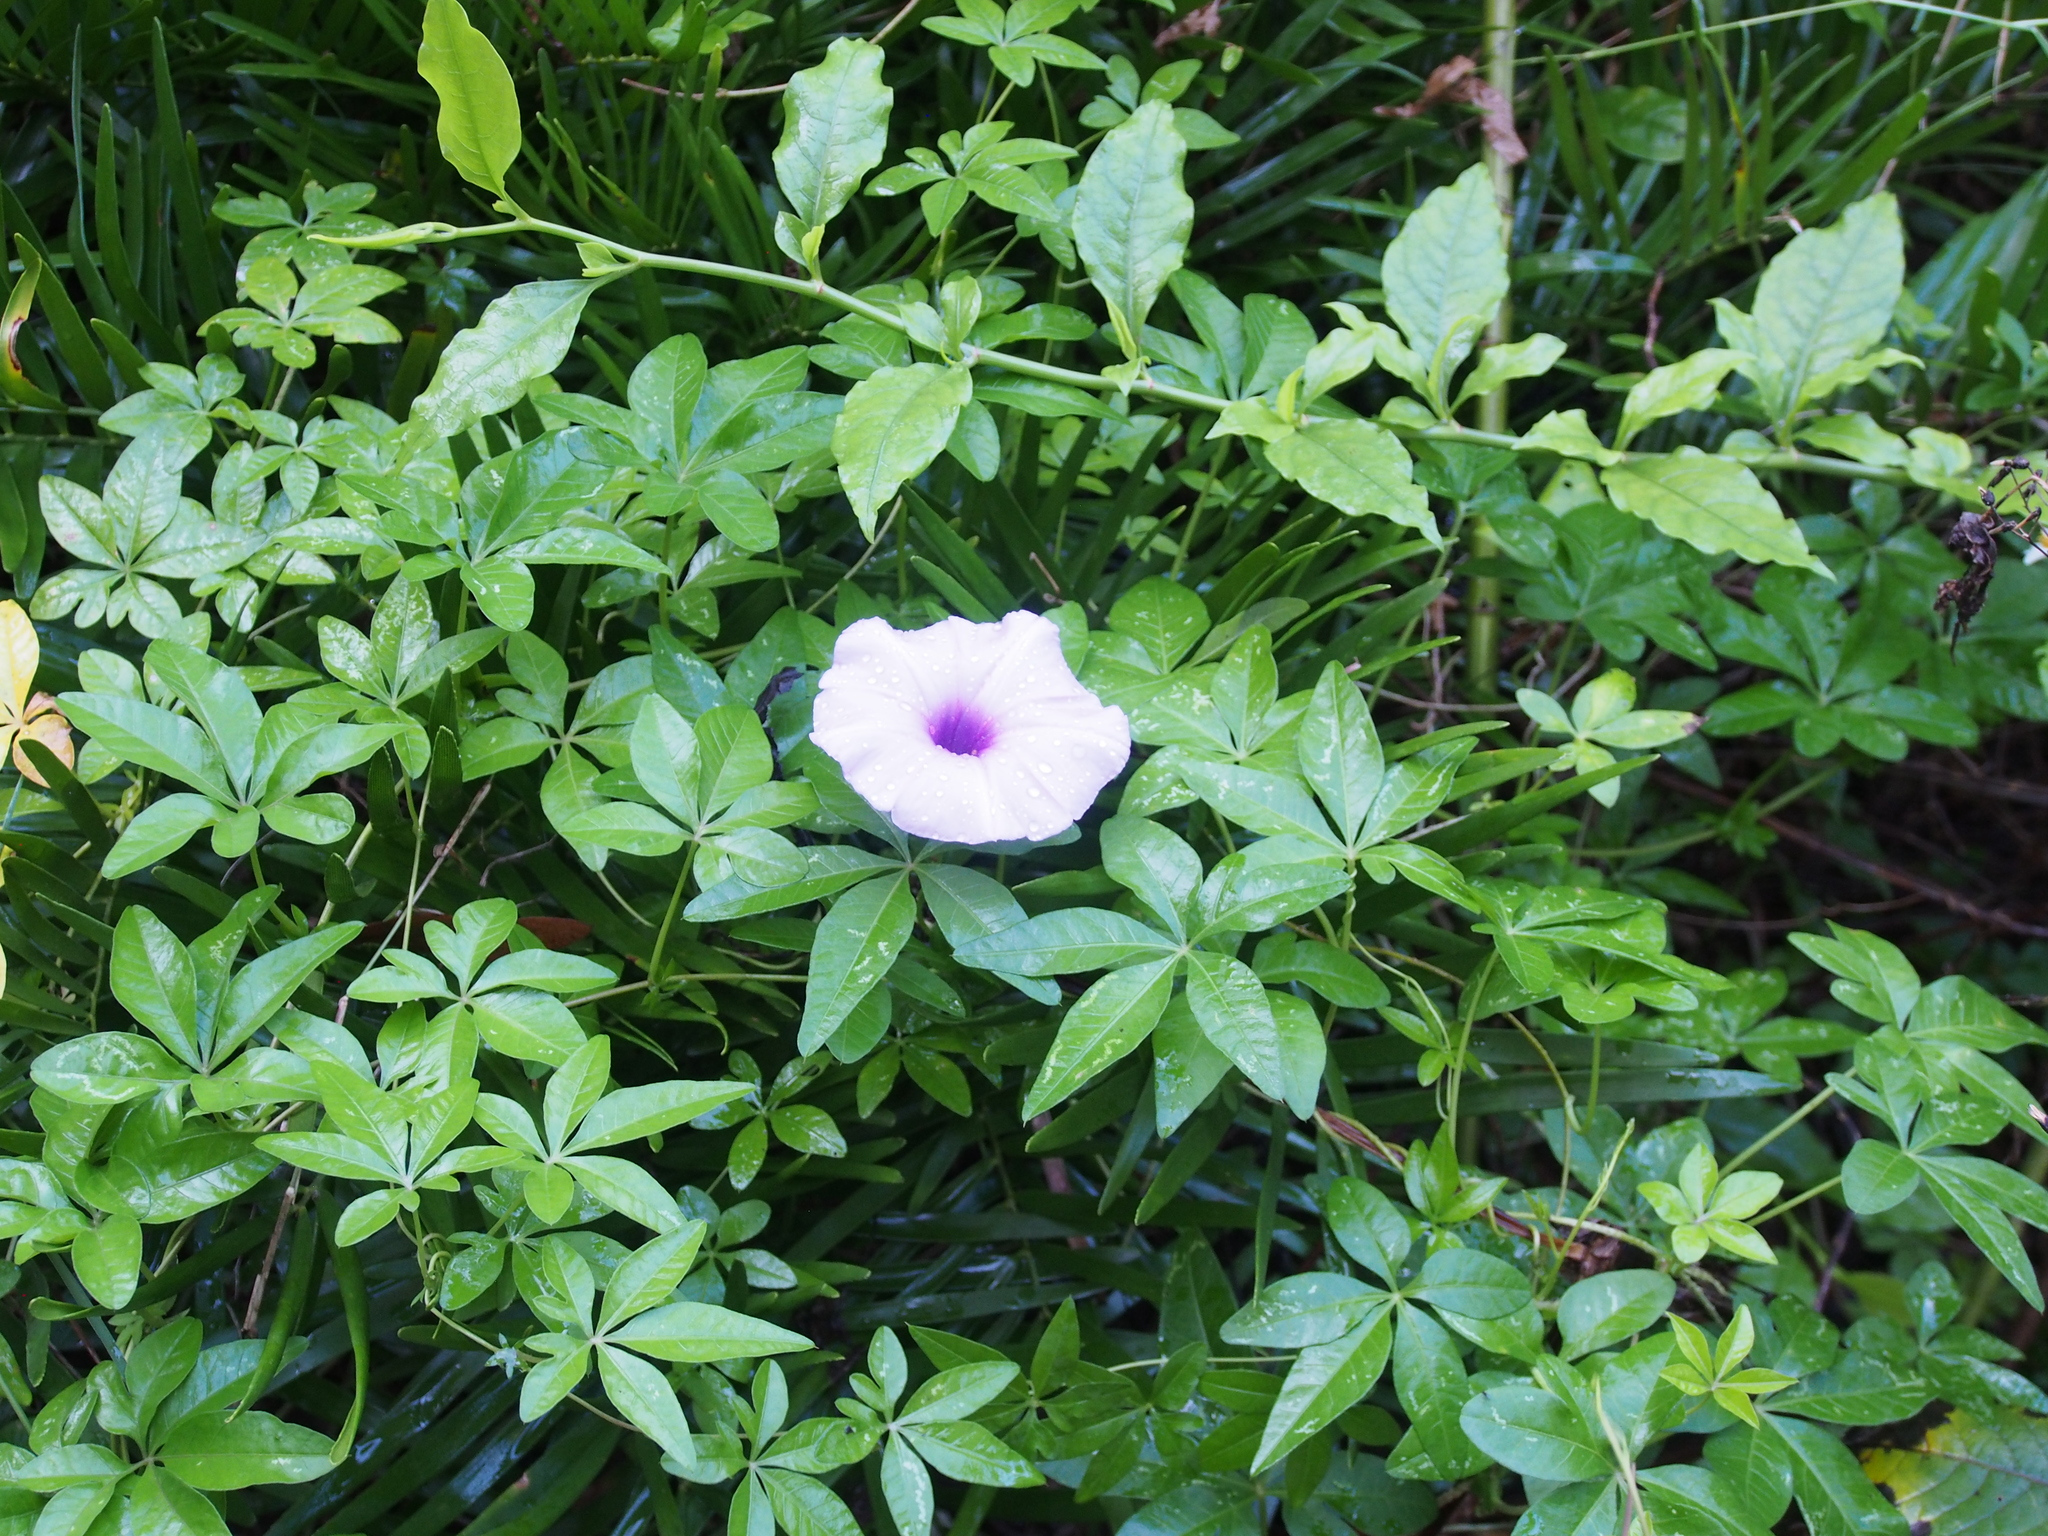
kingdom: Plantae
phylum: Tracheophyta
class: Magnoliopsida
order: Solanales
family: Convolvulaceae
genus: Ipomoea
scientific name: Ipomoea cairica
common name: Mile a minute vine
